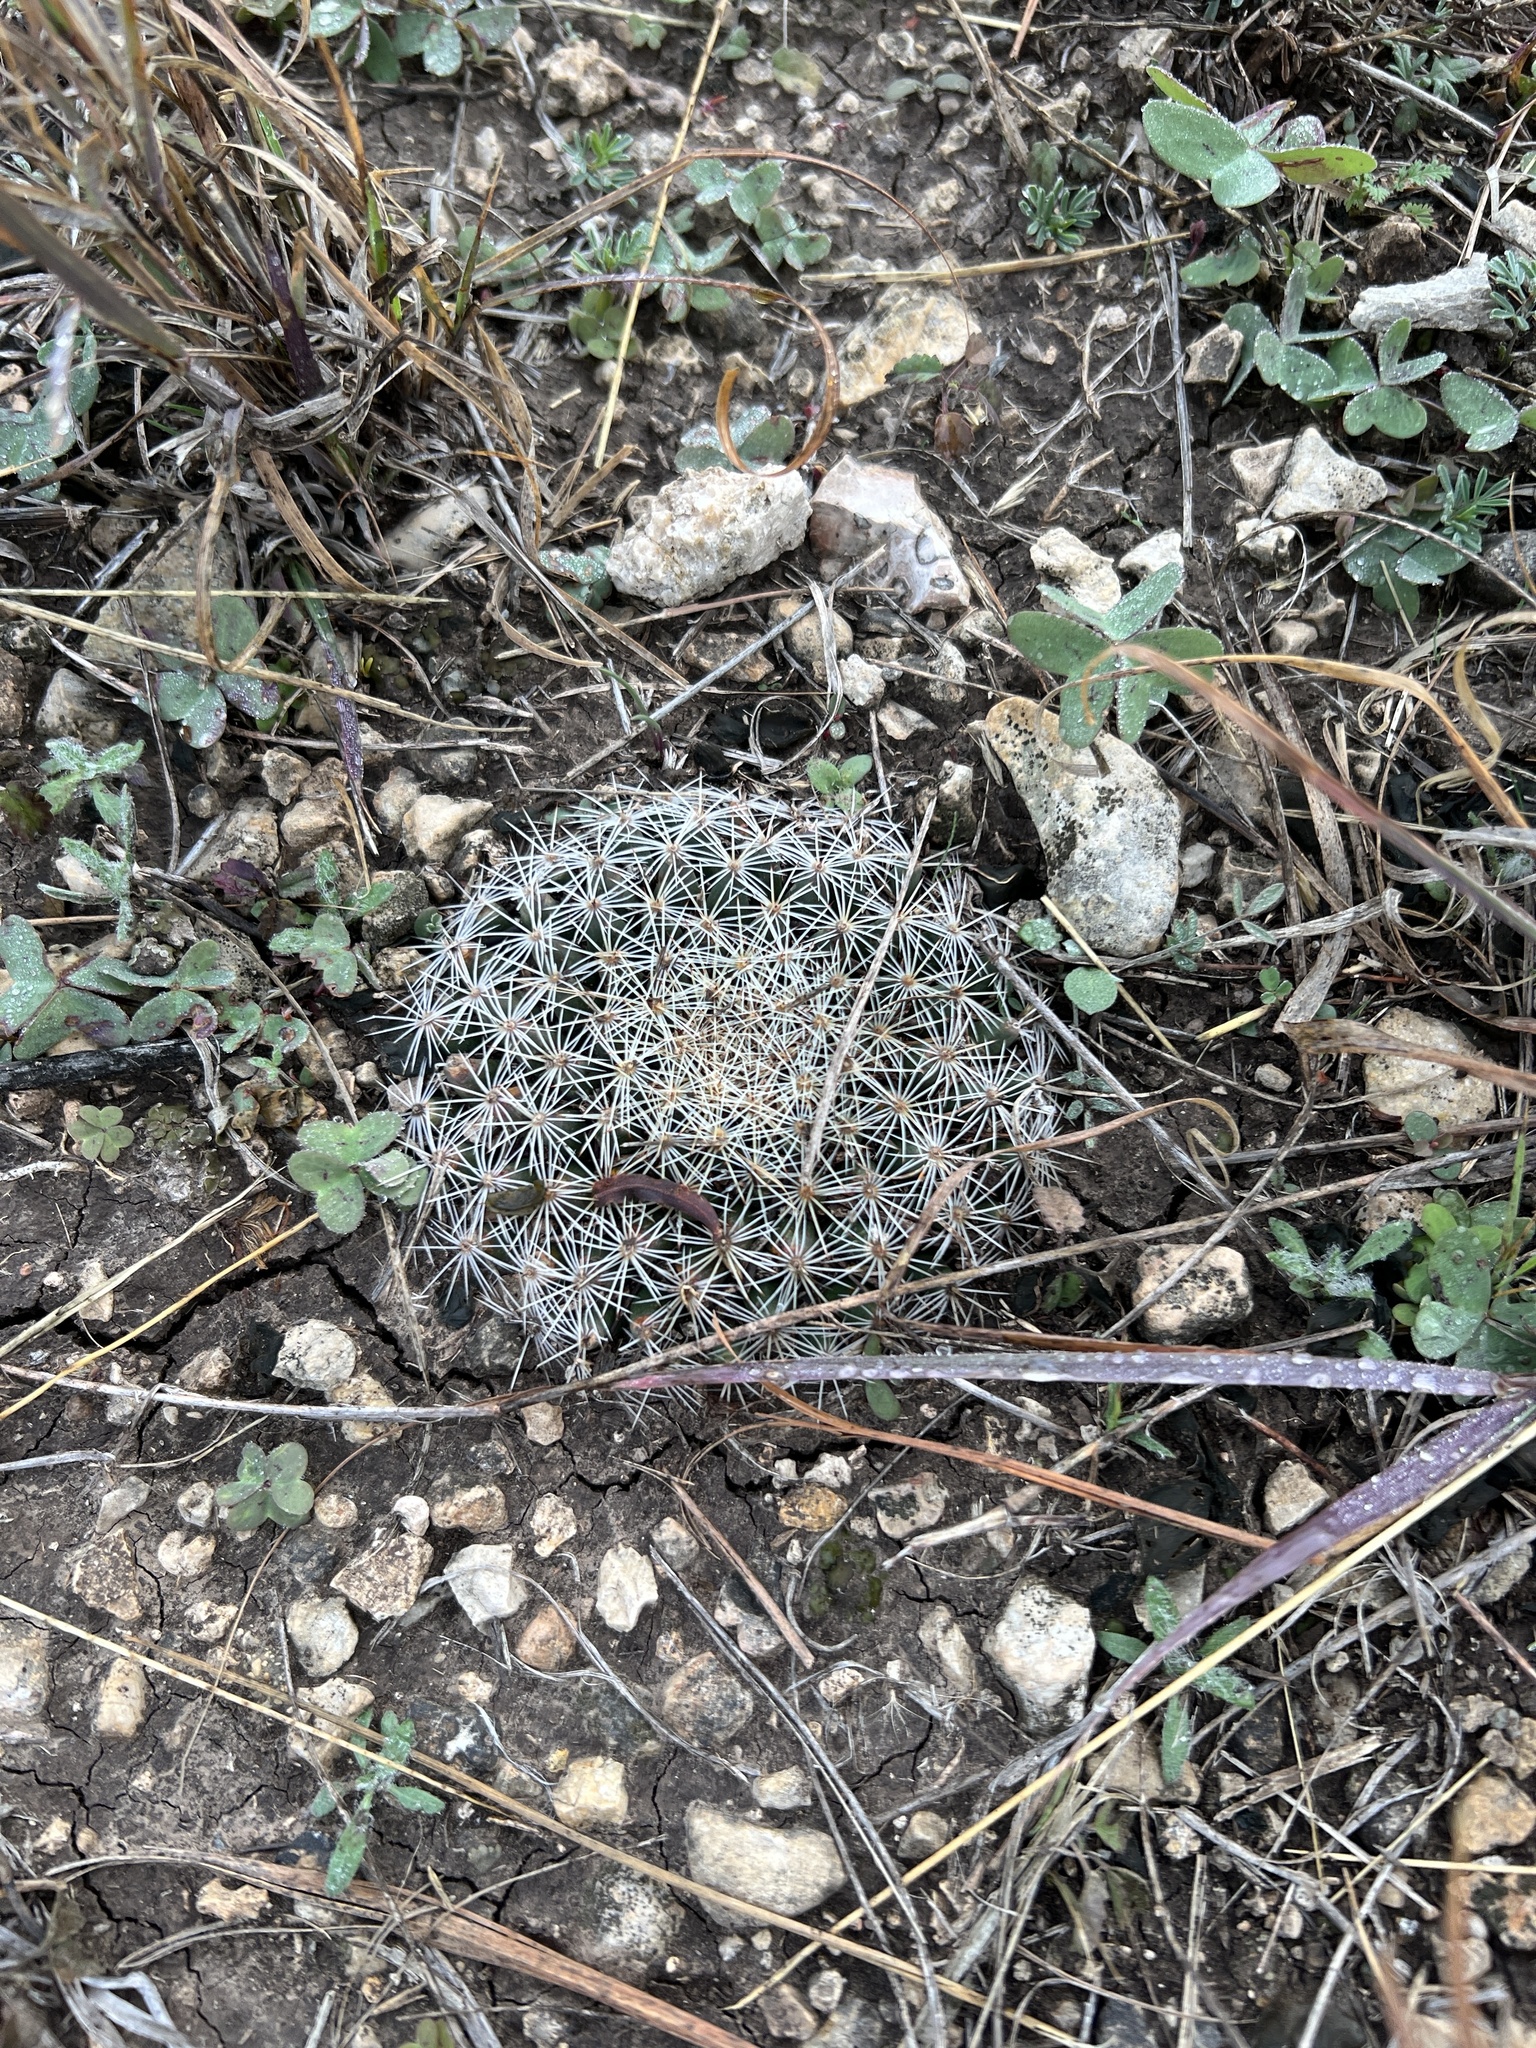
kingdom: Plantae
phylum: Tracheophyta
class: Magnoliopsida
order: Caryophyllales
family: Cactaceae
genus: Mammillaria
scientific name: Mammillaria heyderi
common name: Little nipple cactus
